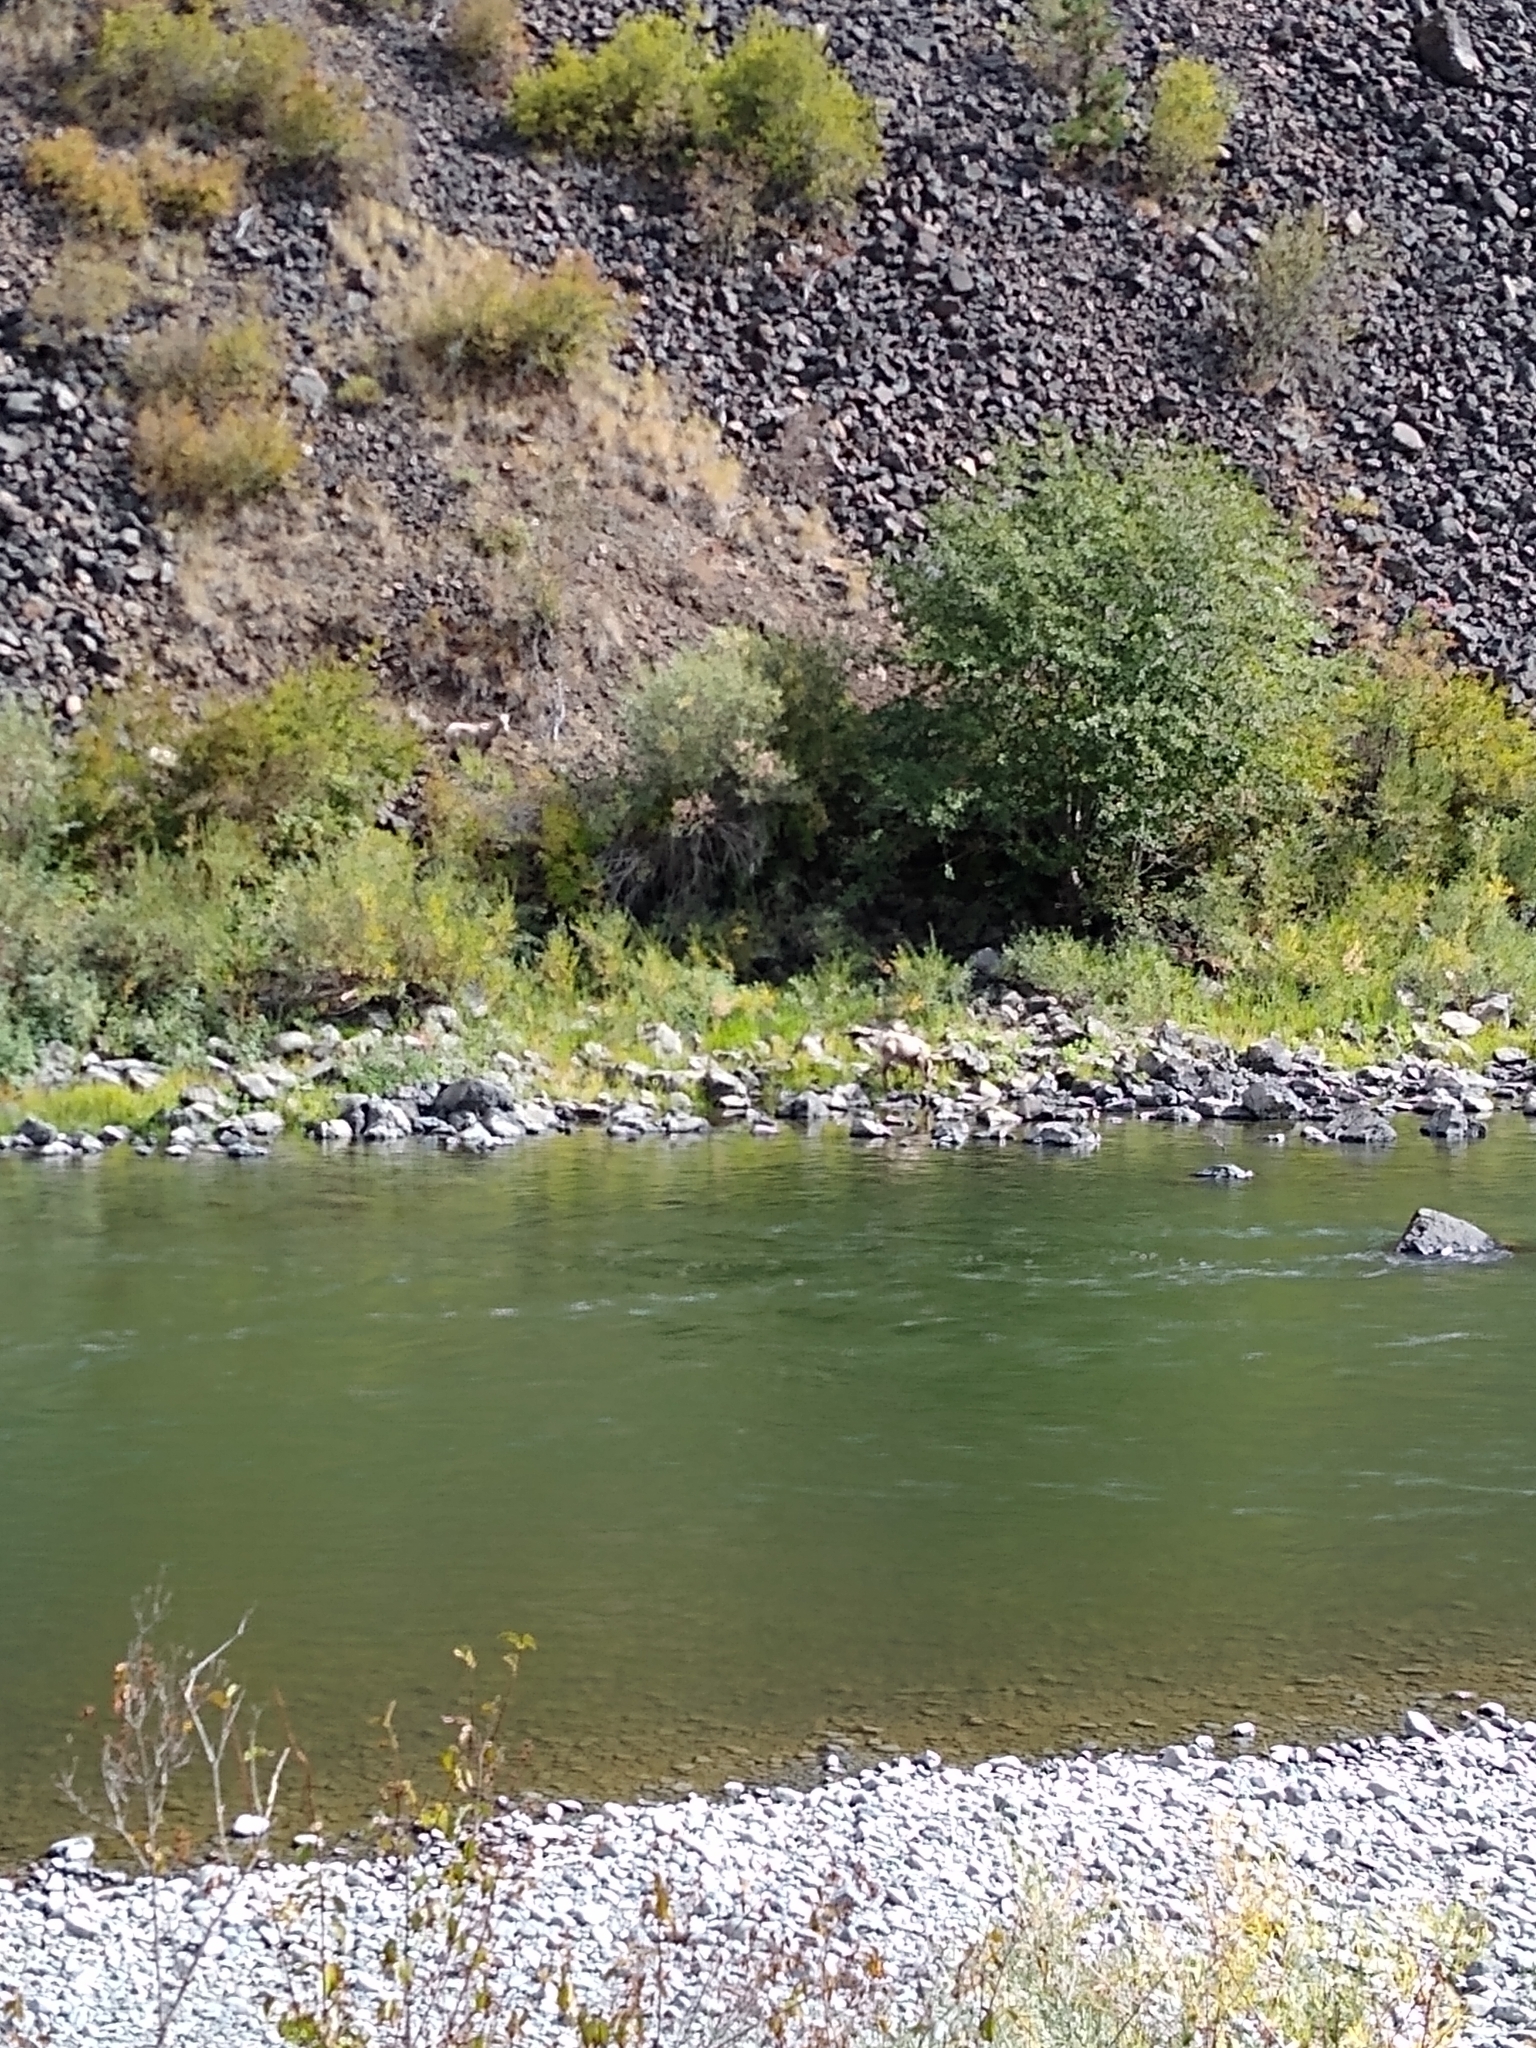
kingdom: Animalia
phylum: Chordata
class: Mammalia
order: Artiodactyla
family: Bovidae
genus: Ovis
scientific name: Ovis canadensis
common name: Bighorn sheep
